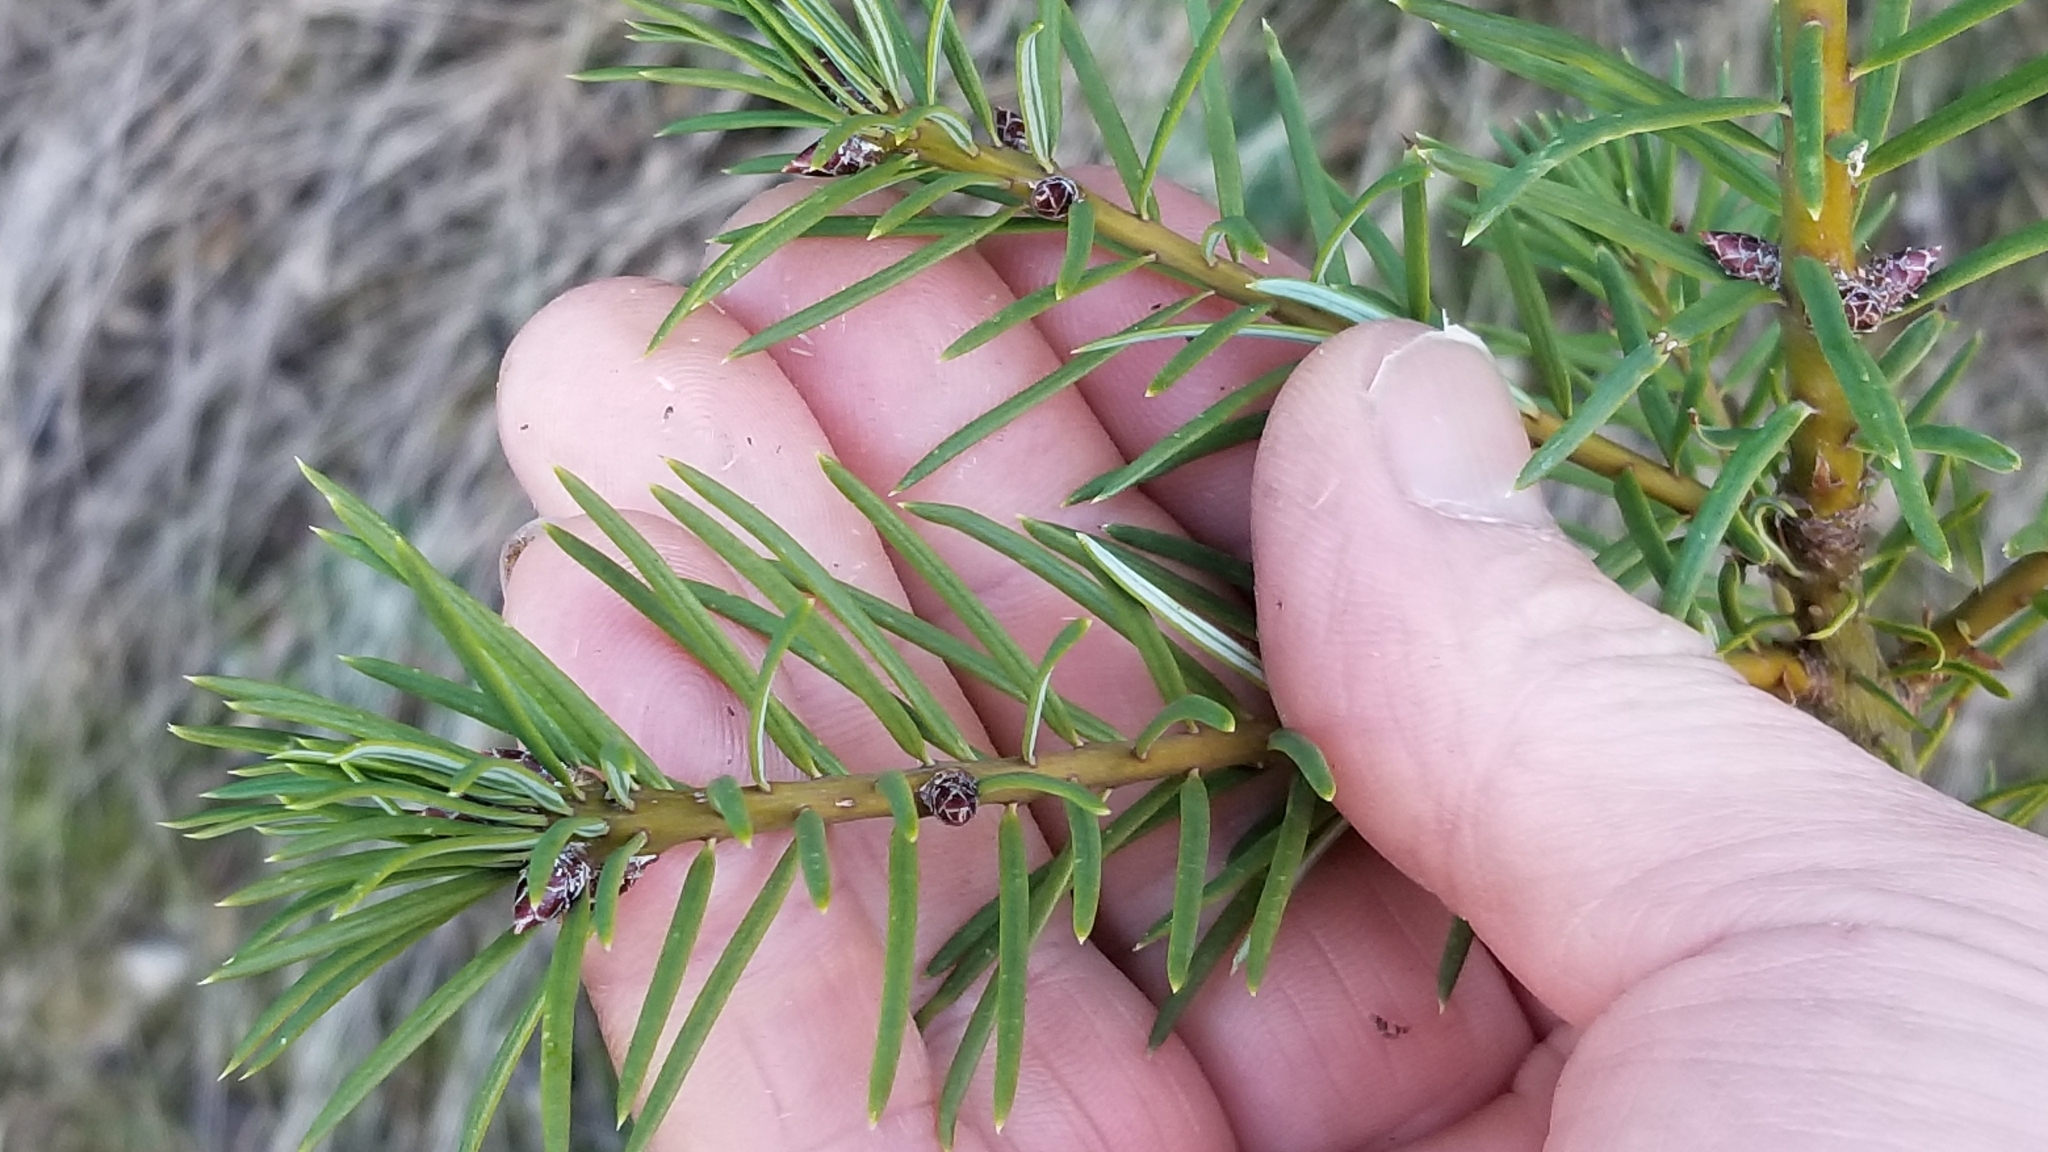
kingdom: Plantae
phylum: Tracheophyta
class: Pinopsida
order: Pinales
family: Pinaceae
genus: Pseudotsuga
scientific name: Pseudotsuga menziesii
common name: Douglas fir
